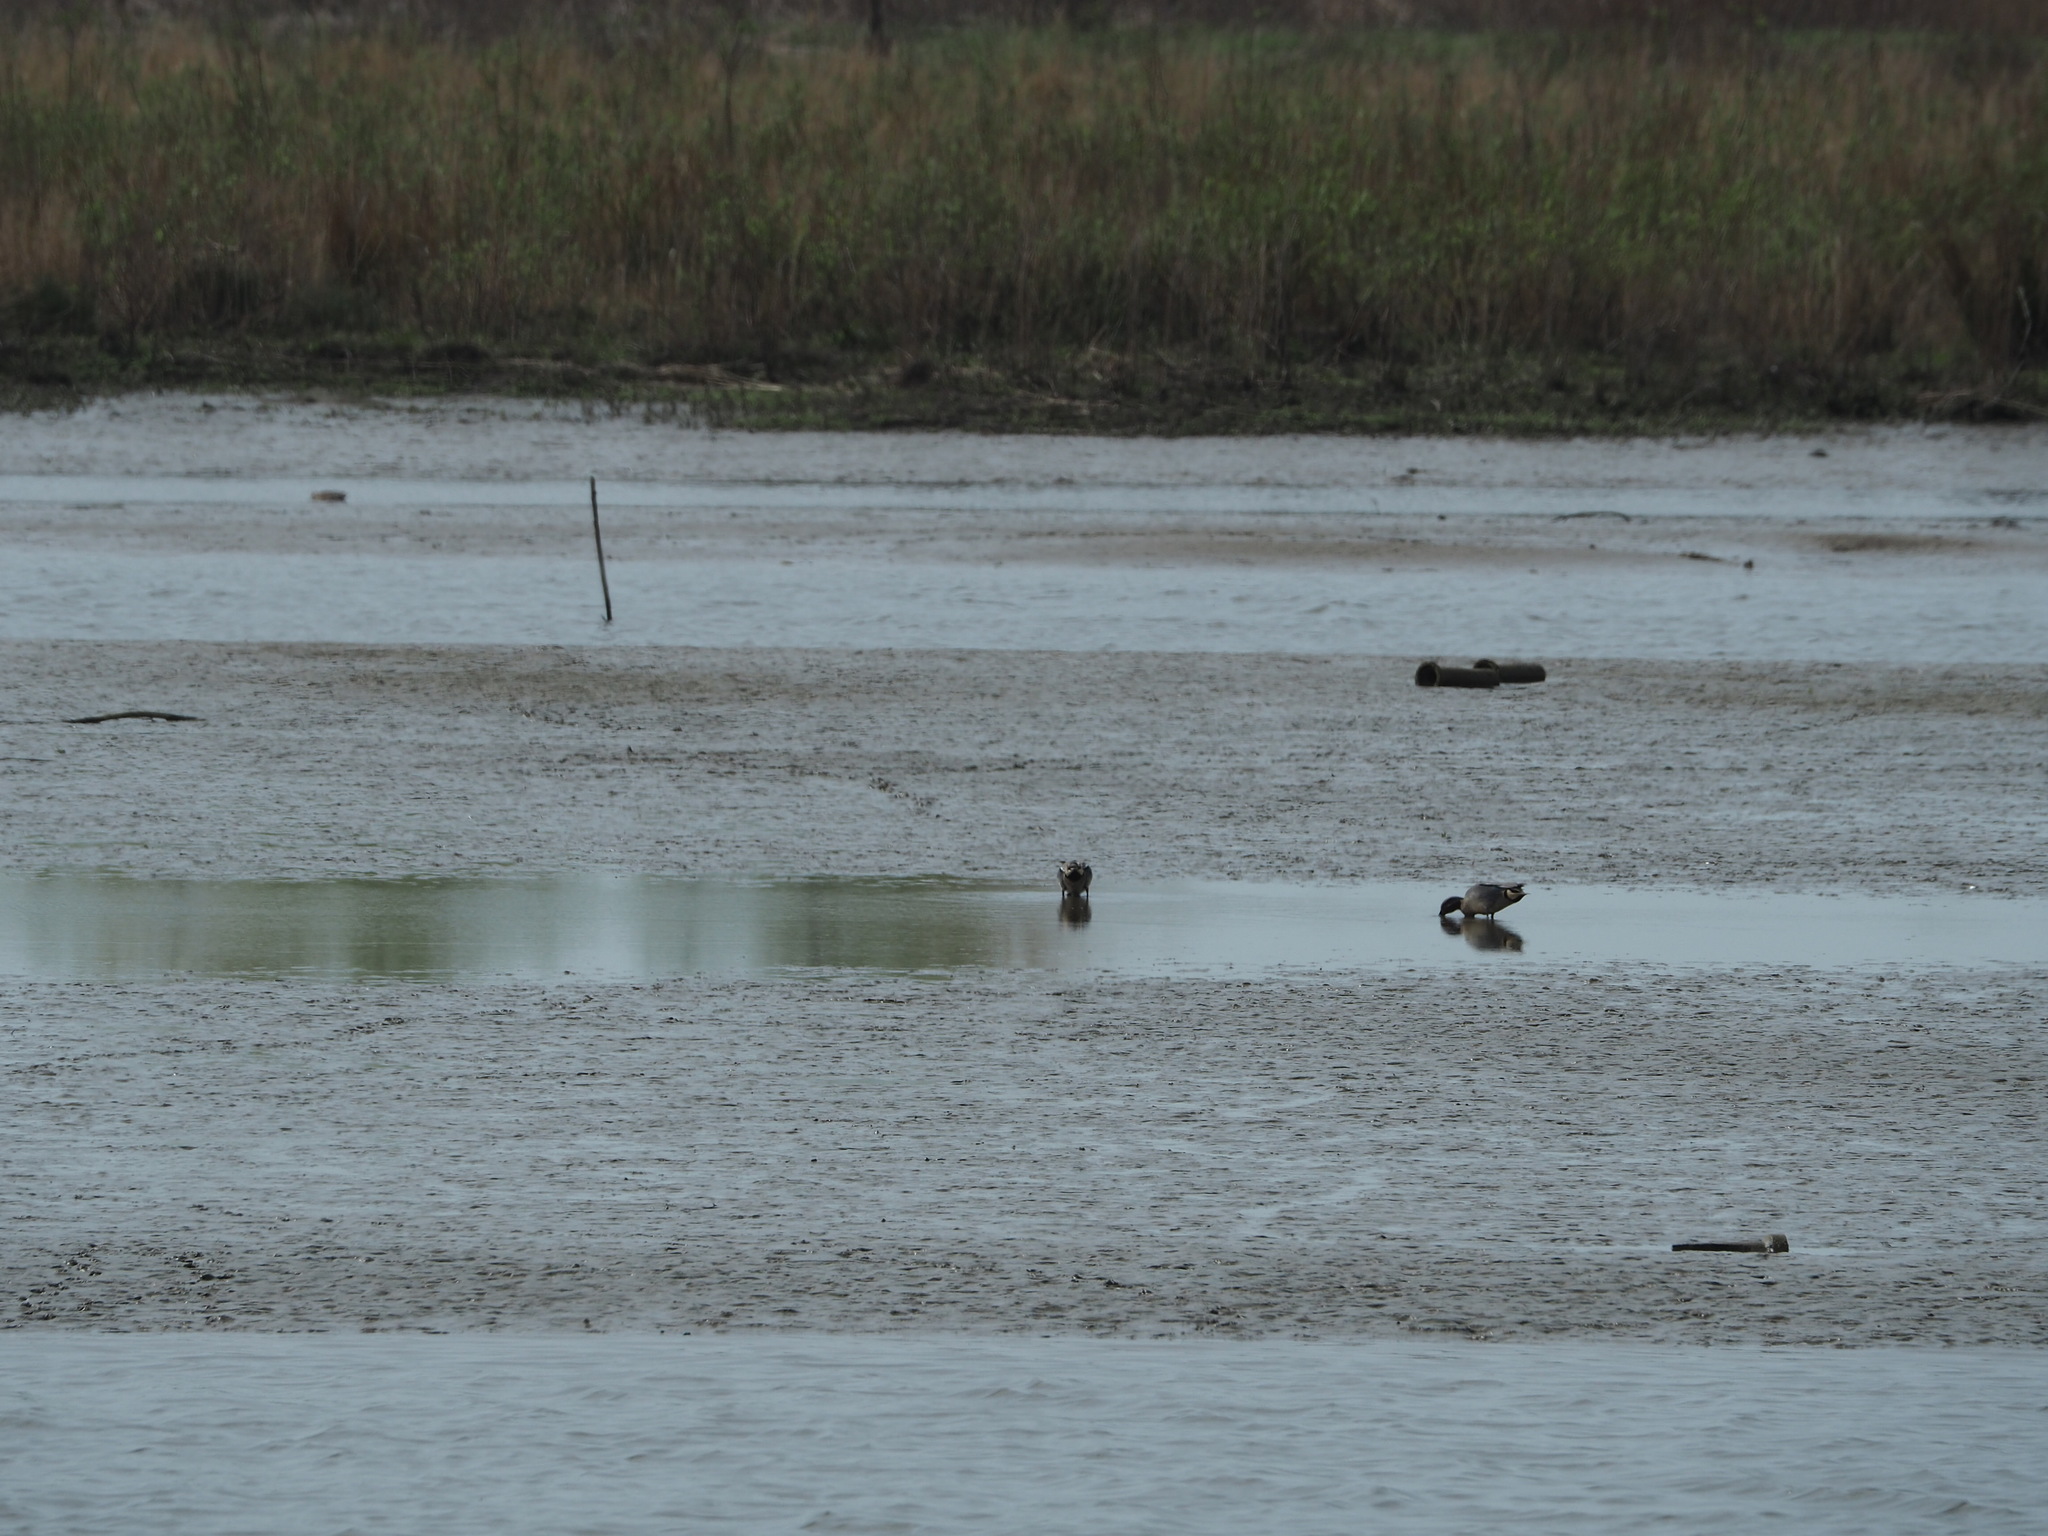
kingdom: Animalia
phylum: Chordata
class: Aves
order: Anseriformes
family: Anatidae
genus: Anas
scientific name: Anas crecca
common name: Eurasian teal
